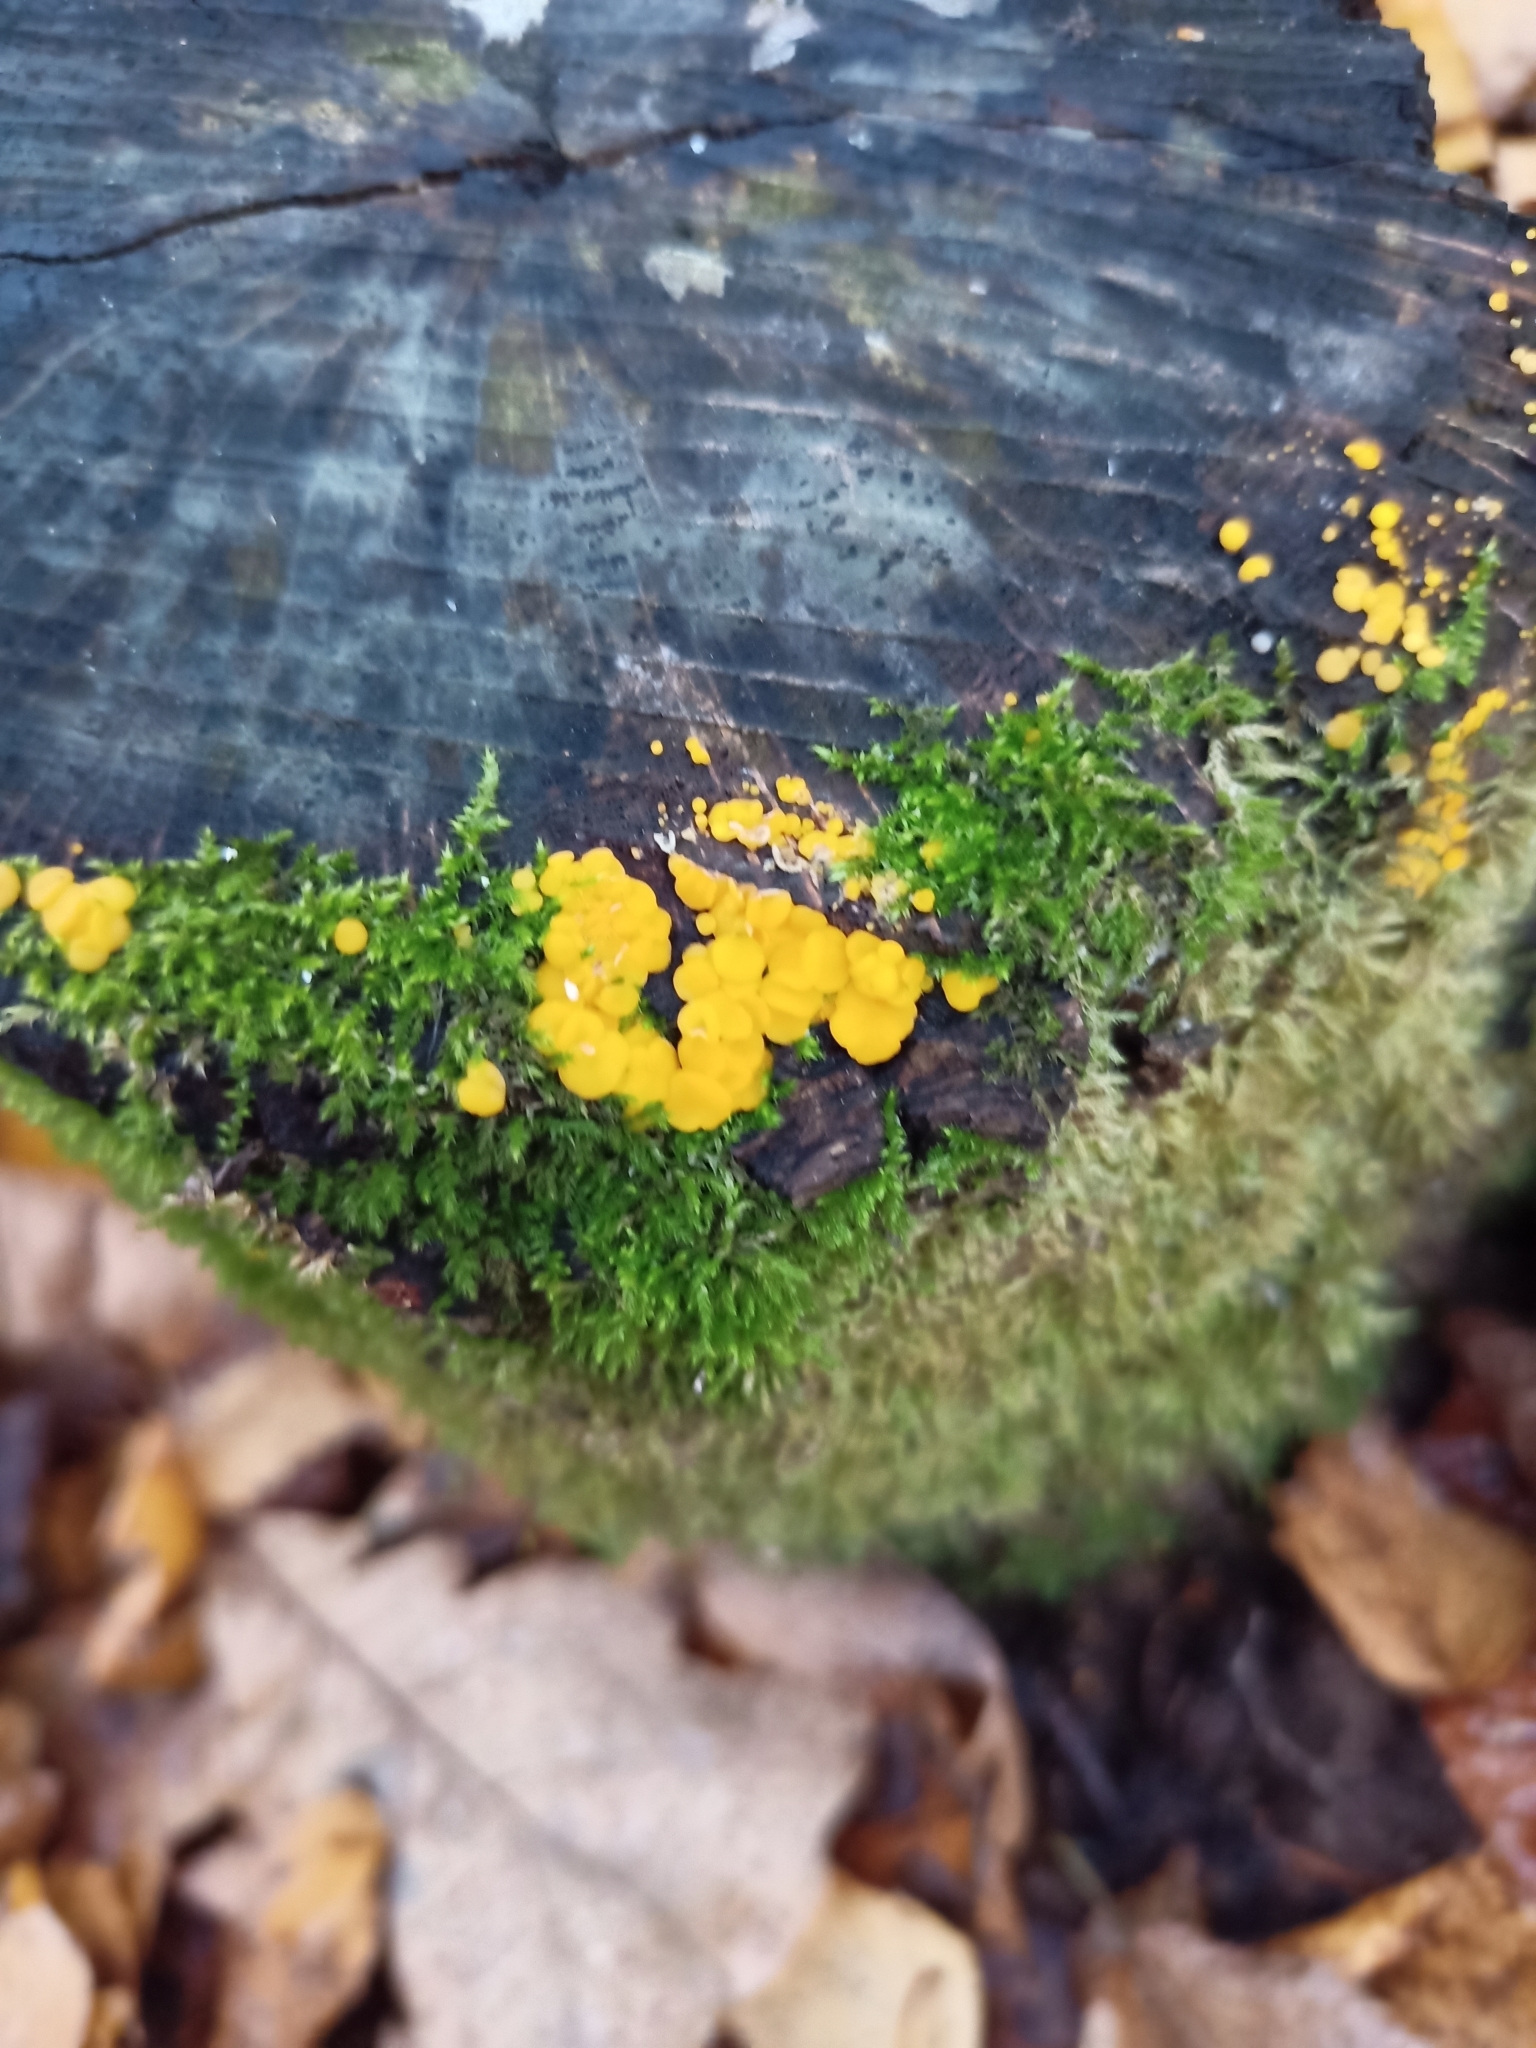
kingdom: Fungi
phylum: Ascomycota
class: Leotiomycetes
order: Helotiales
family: Pezizellaceae
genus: Calycina
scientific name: Calycina citrina
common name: Yellow fairy cups
